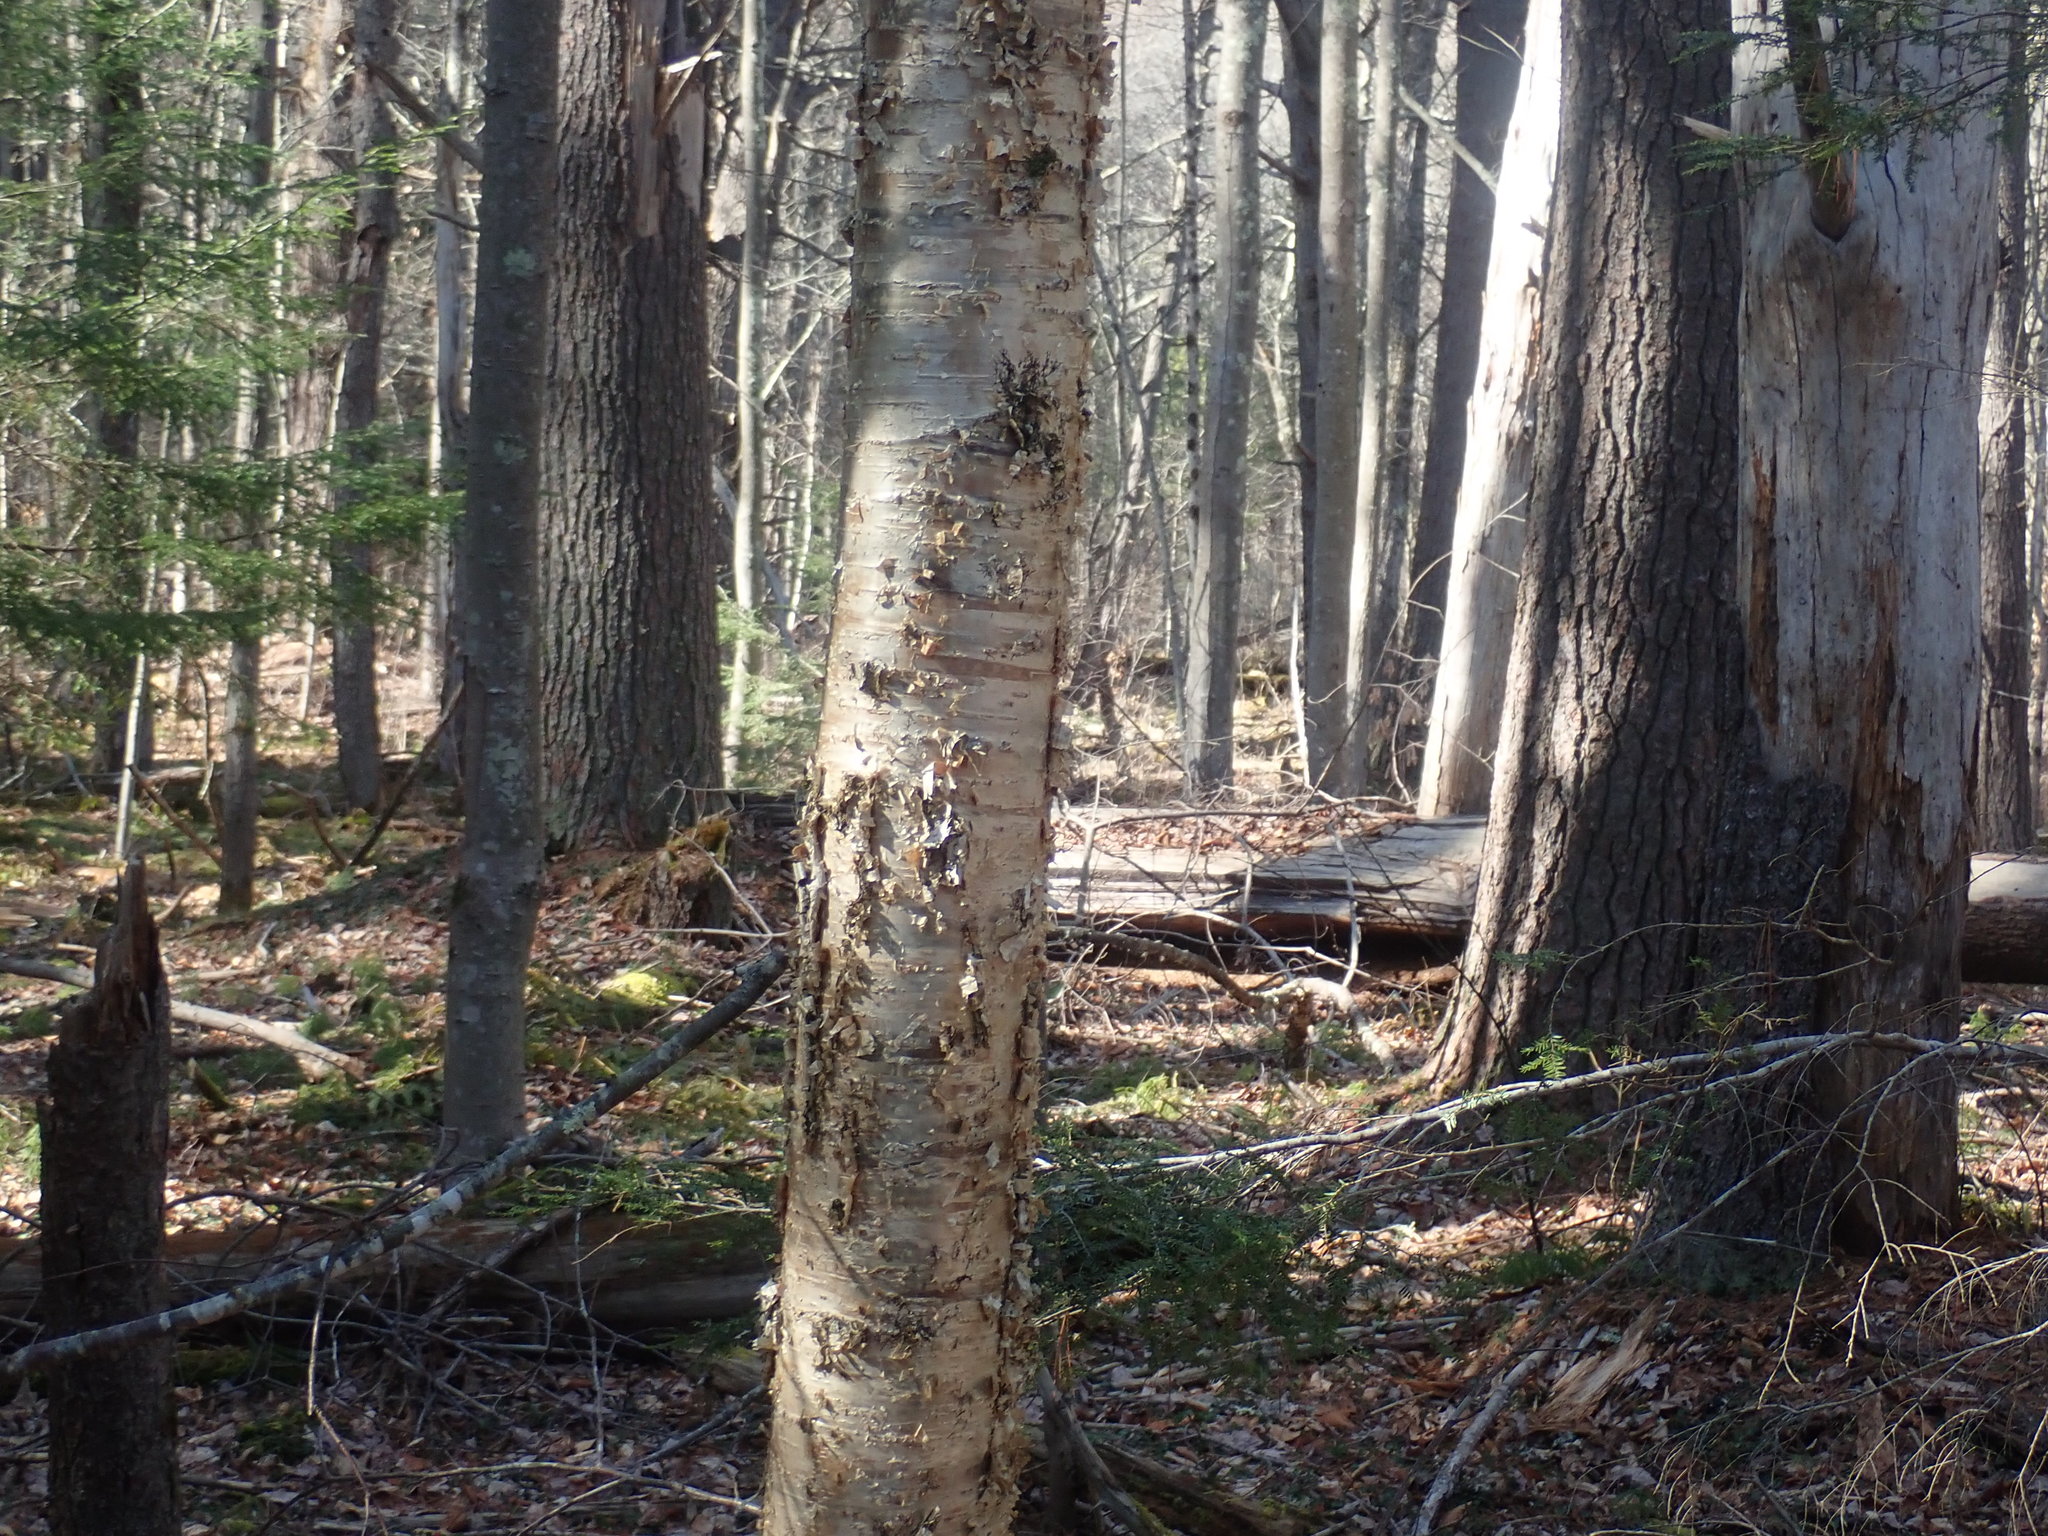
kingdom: Plantae
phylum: Tracheophyta
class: Magnoliopsida
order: Fagales
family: Betulaceae
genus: Betula
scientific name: Betula alleghaniensis
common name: Yellow birch
